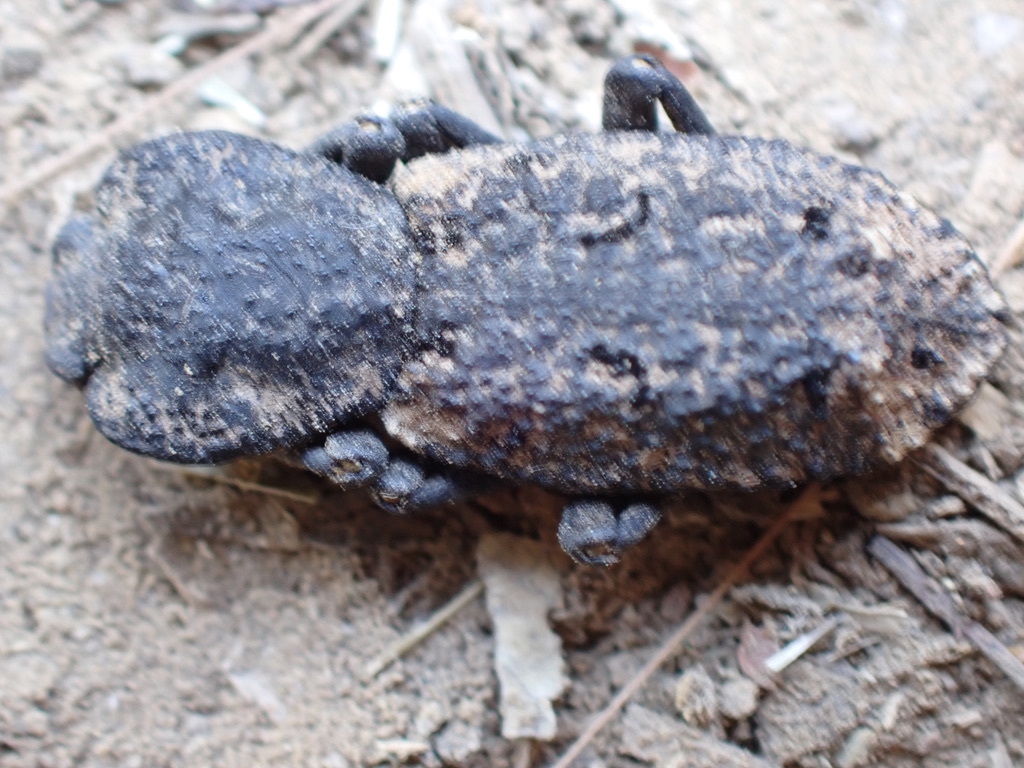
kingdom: Animalia
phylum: Arthropoda
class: Insecta
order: Coleoptera
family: Zopheridae
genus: Phloeodes
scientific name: Phloeodes diabolicus
